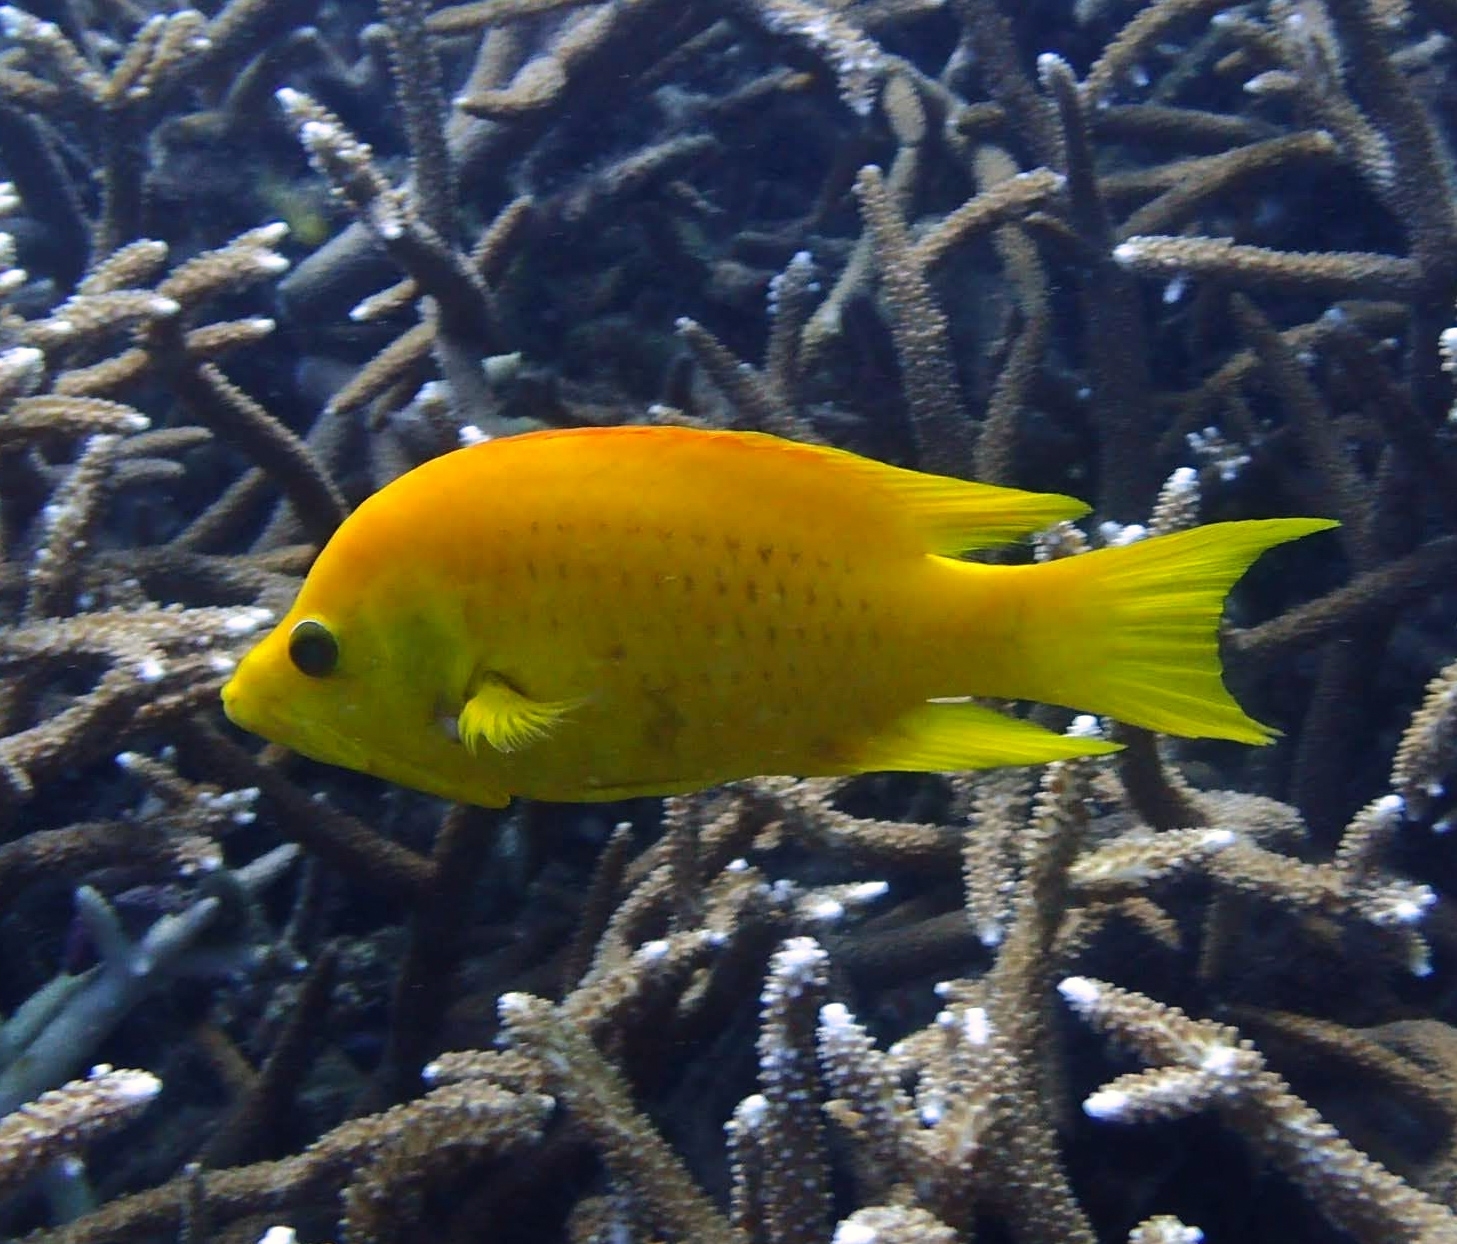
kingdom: Animalia
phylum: Chordata
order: Perciformes
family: Labridae
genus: Epibulus
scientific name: Epibulus insidiator
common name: Slingjaw wrasse
